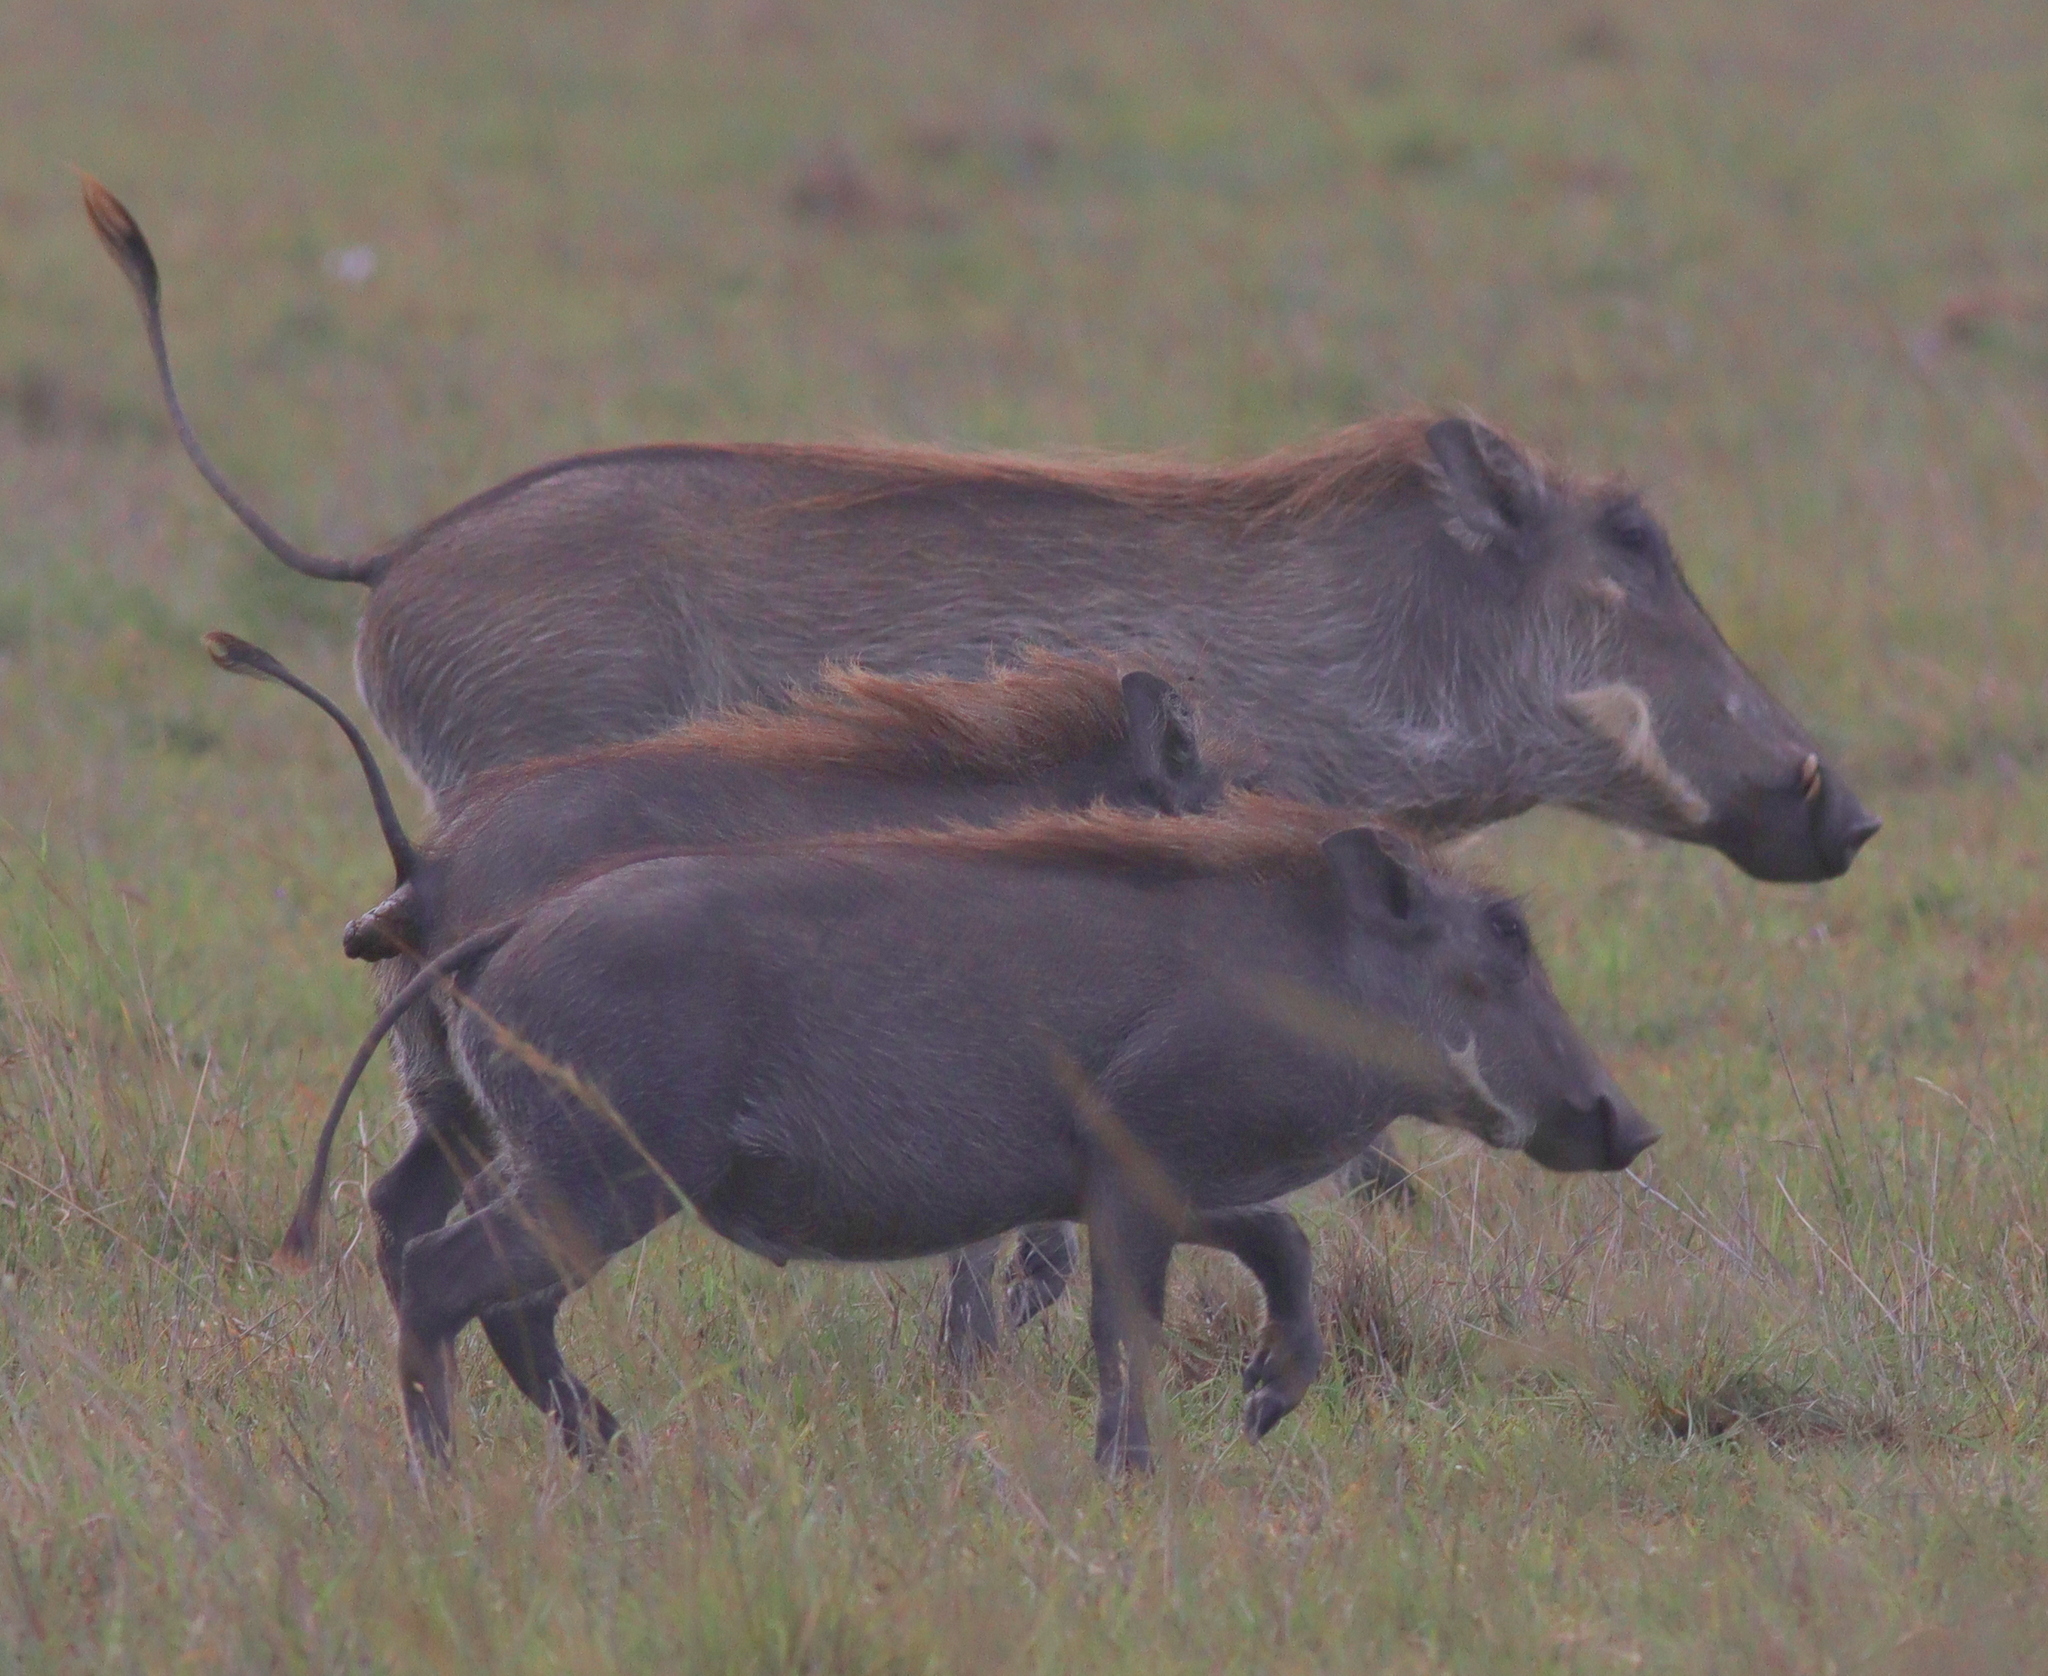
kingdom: Animalia
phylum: Chordata
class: Mammalia
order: Artiodactyla
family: Suidae
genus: Phacochoerus
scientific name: Phacochoerus africanus
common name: Common warthog
